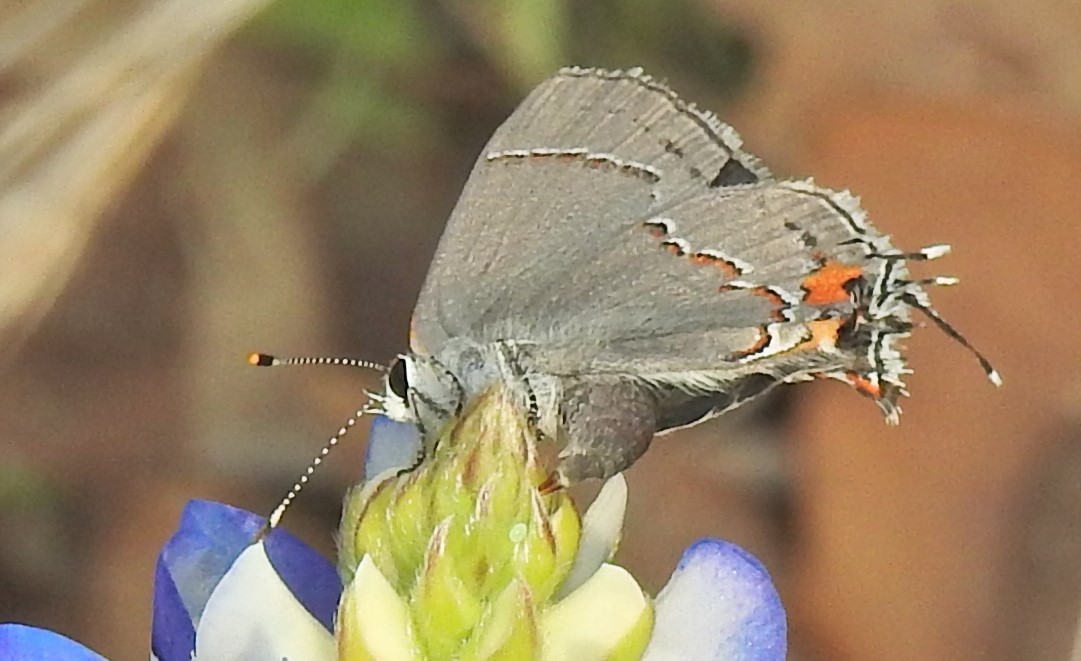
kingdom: Animalia
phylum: Arthropoda
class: Insecta
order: Lepidoptera
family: Lycaenidae
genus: Strymon
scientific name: Strymon melinus
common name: Gray hairstreak
